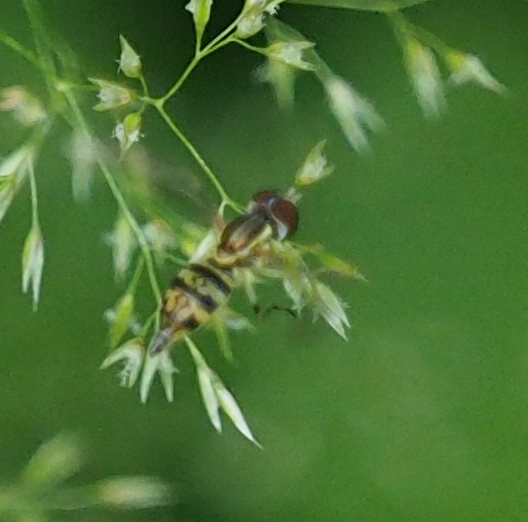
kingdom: Animalia
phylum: Arthropoda
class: Insecta
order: Diptera
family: Syrphidae
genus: Toxomerus
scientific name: Toxomerus geminatus
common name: Eastern calligrapher
